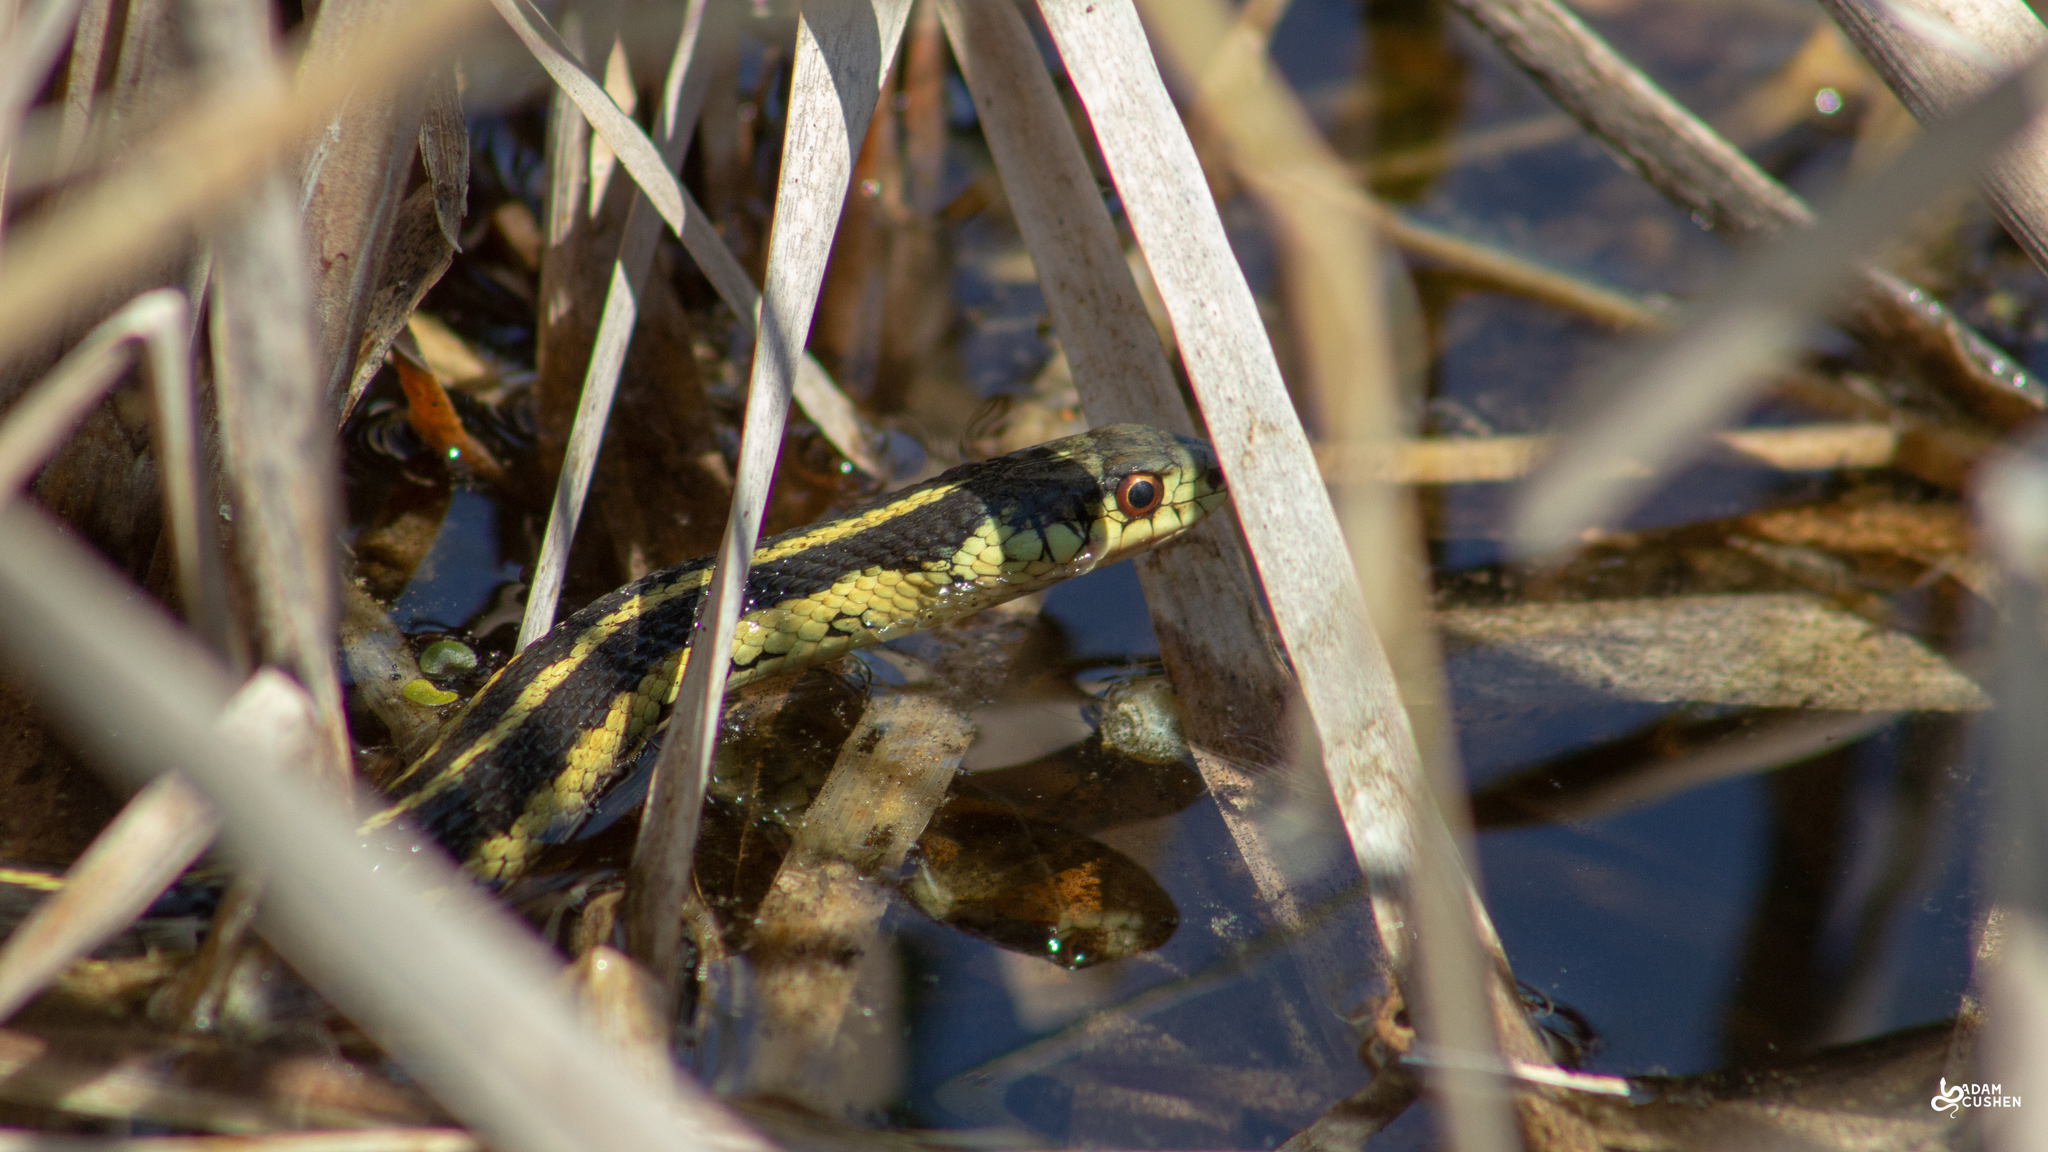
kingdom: Animalia
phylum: Chordata
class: Squamata
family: Colubridae
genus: Thamnophis
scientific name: Thamnophis sirtalis
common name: Common garter snake
